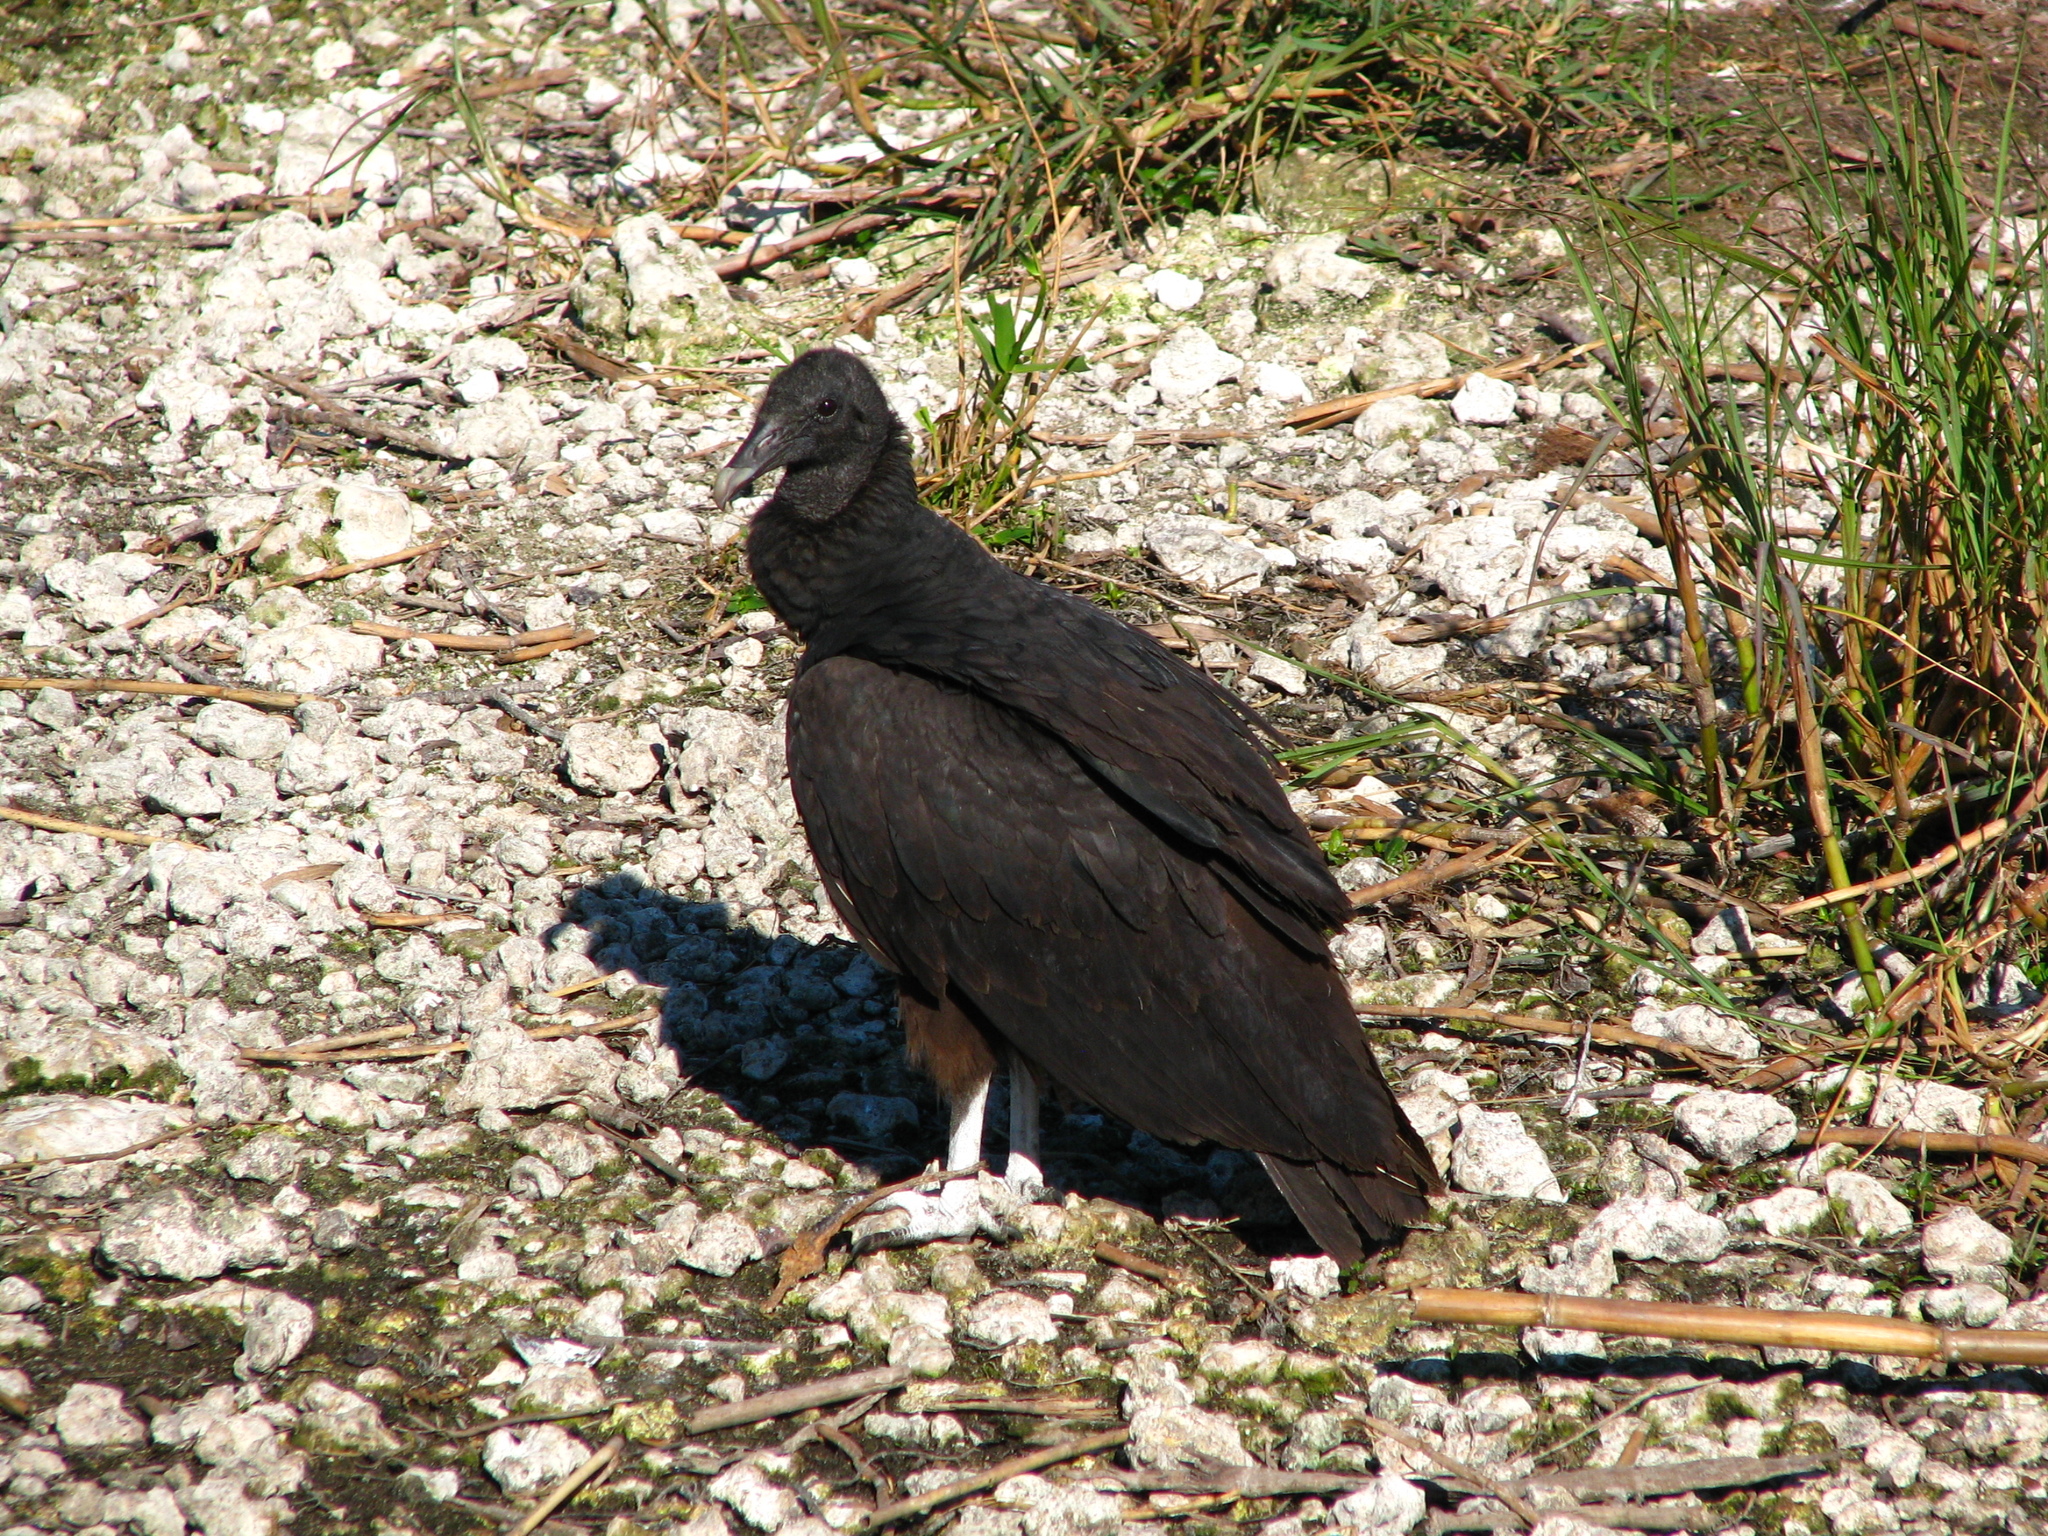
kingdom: Animalia
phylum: Chordata
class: Aves
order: Accipitriformes
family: Cathartidae
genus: Coragyps
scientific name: Coragyps atratus
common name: Black vulture
